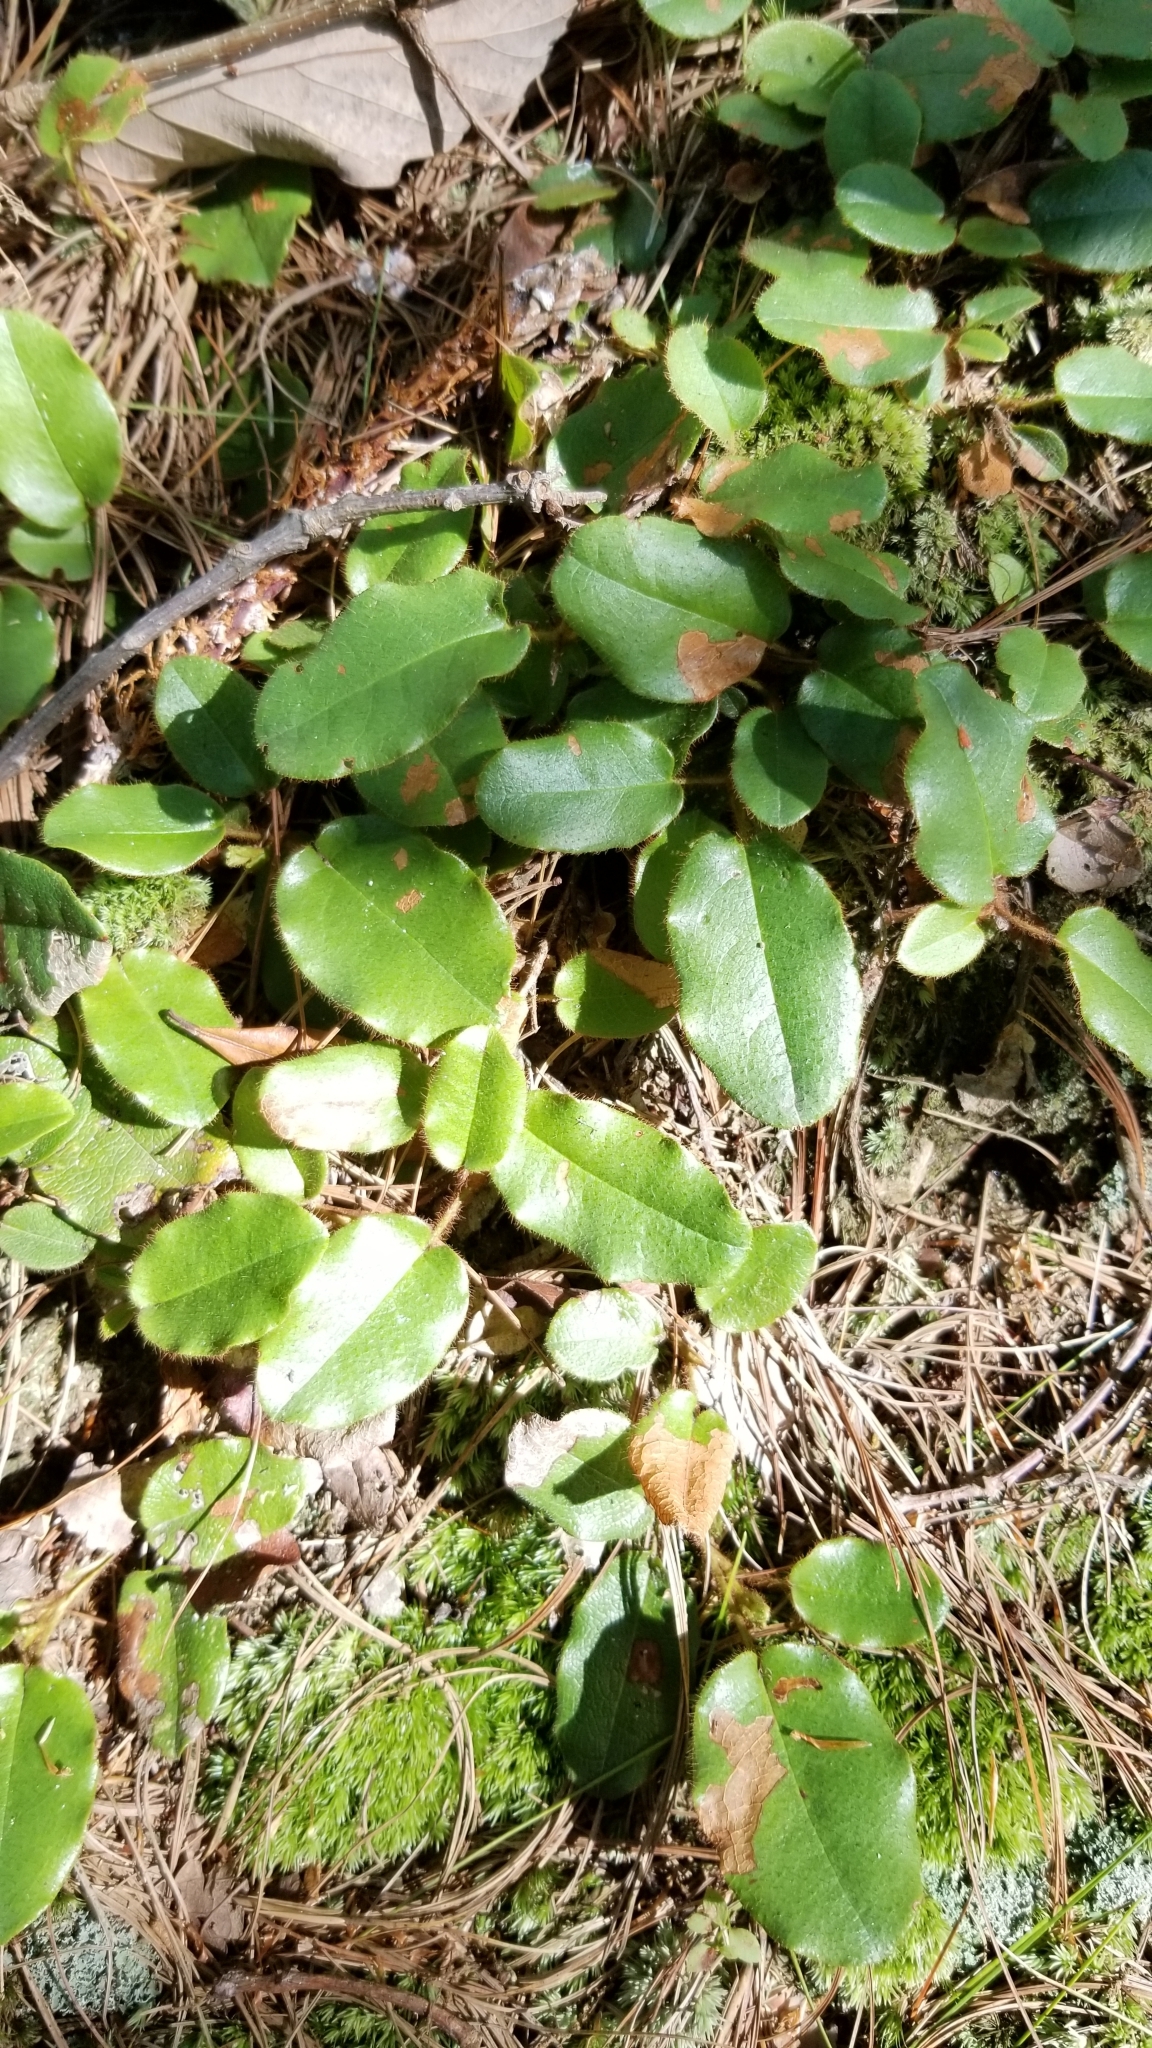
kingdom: Plantae
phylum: Tracheophyta
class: Magnoliopsida
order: Ericales
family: Ericaceae
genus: Epigaea
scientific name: Epigaea repens
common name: Gravelroot
